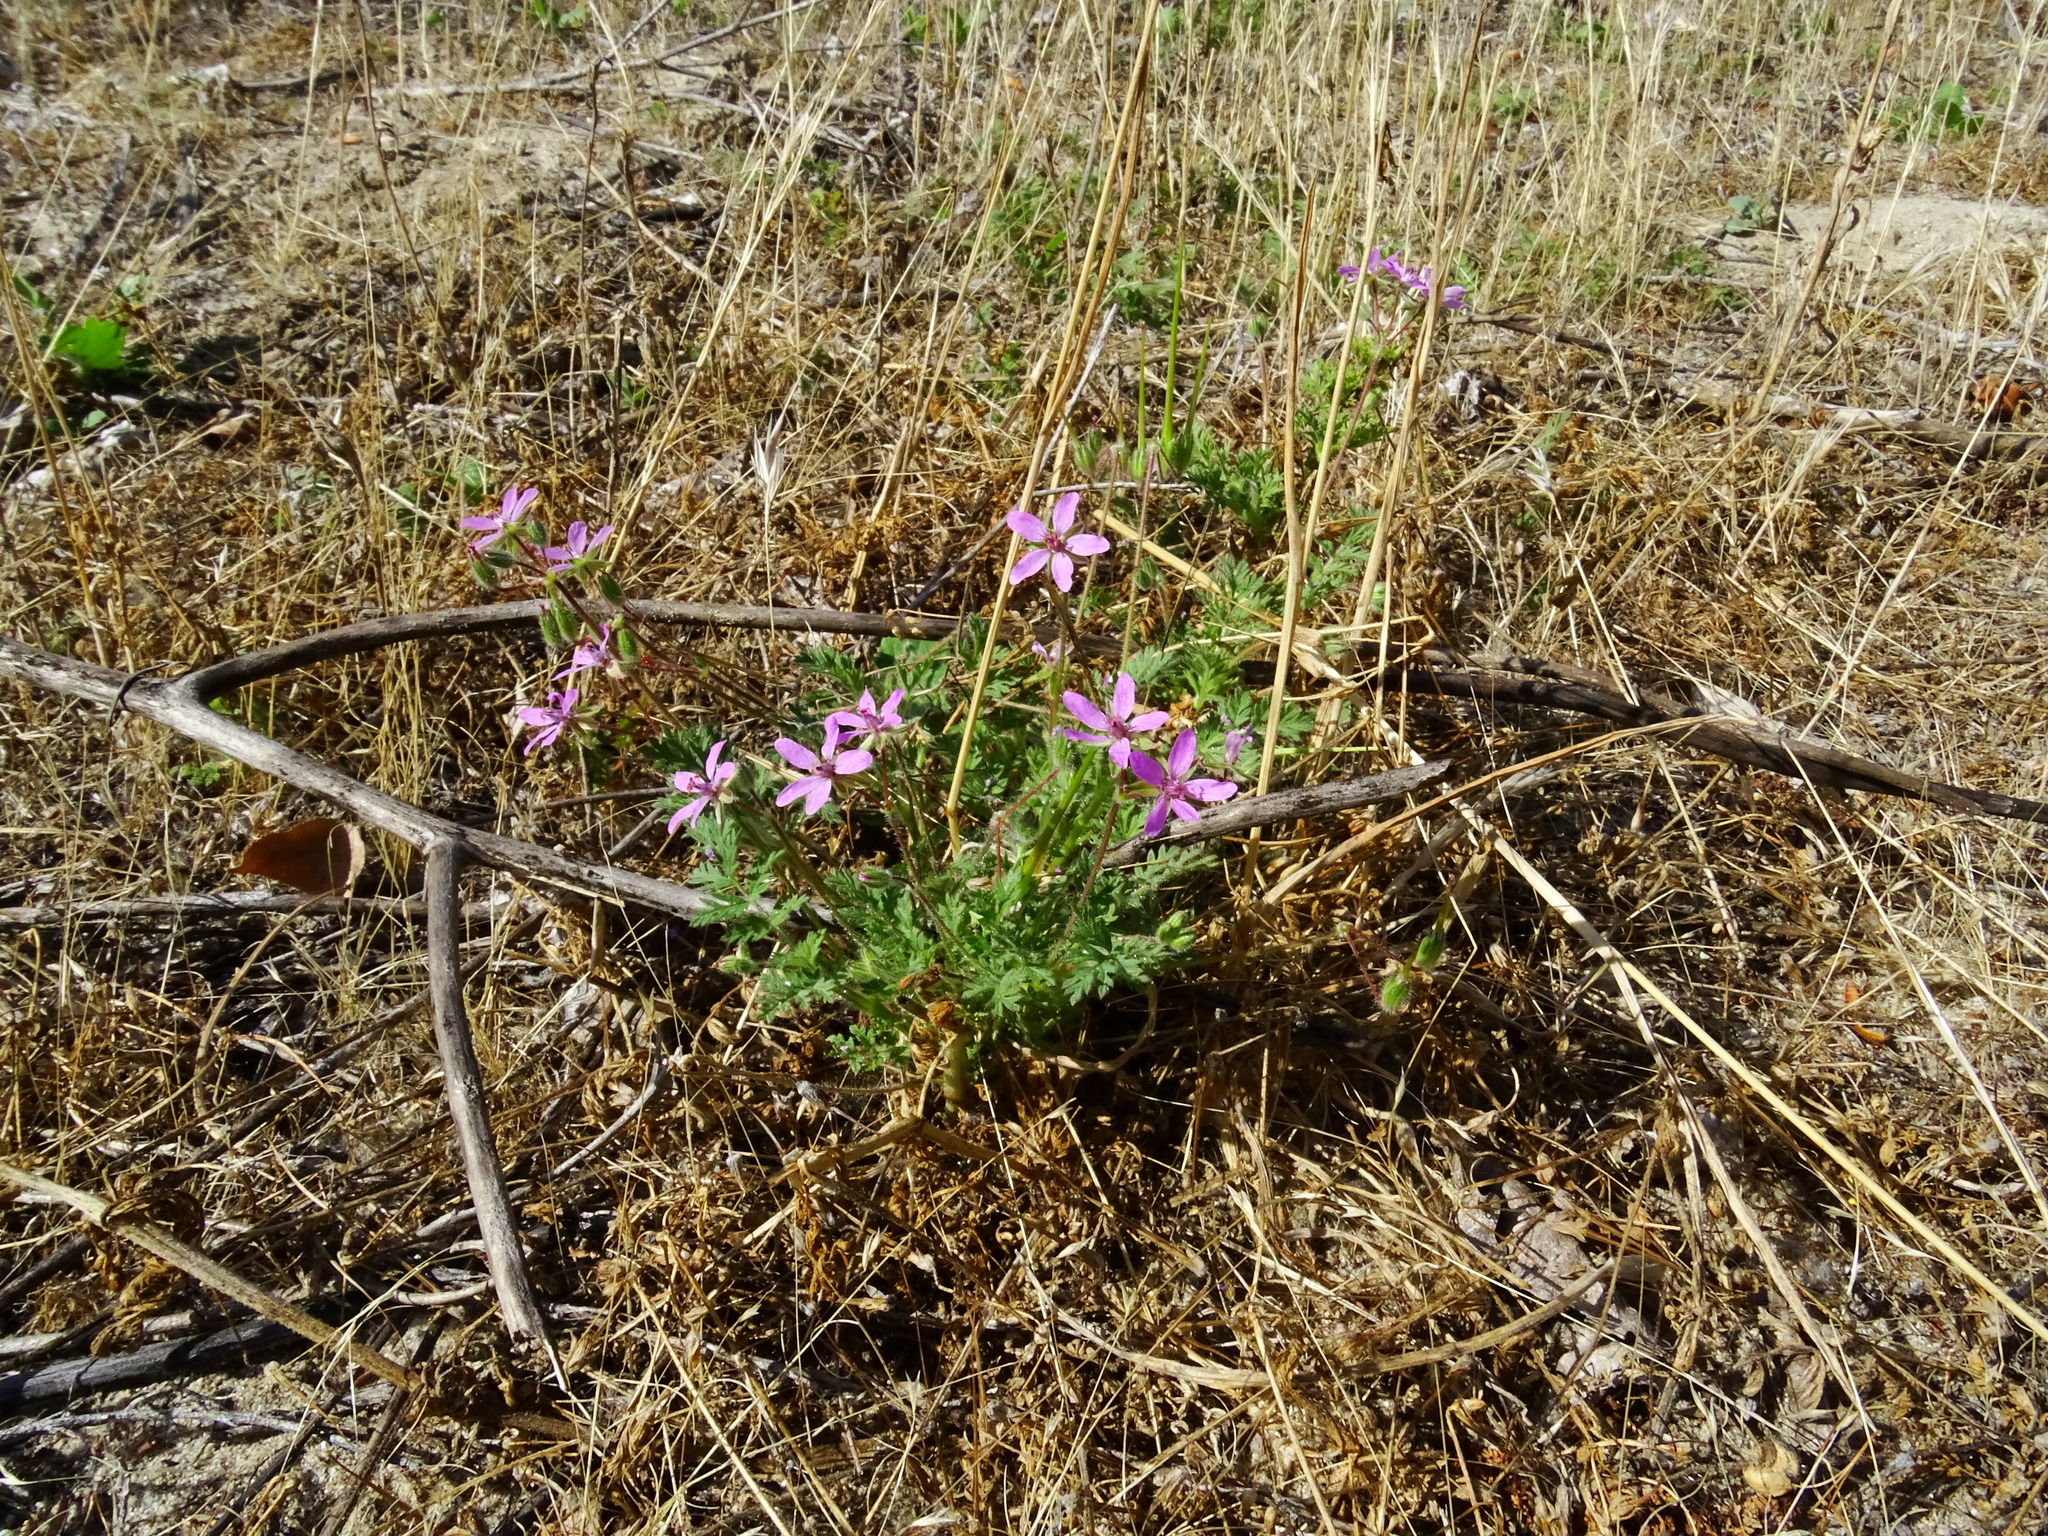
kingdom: Plantae
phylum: Tracheophyta
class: Magnoliopsida
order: Geraniales
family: Geraniaceae
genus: Erodium
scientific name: Erodium cicutarium
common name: Common stork's-bill
